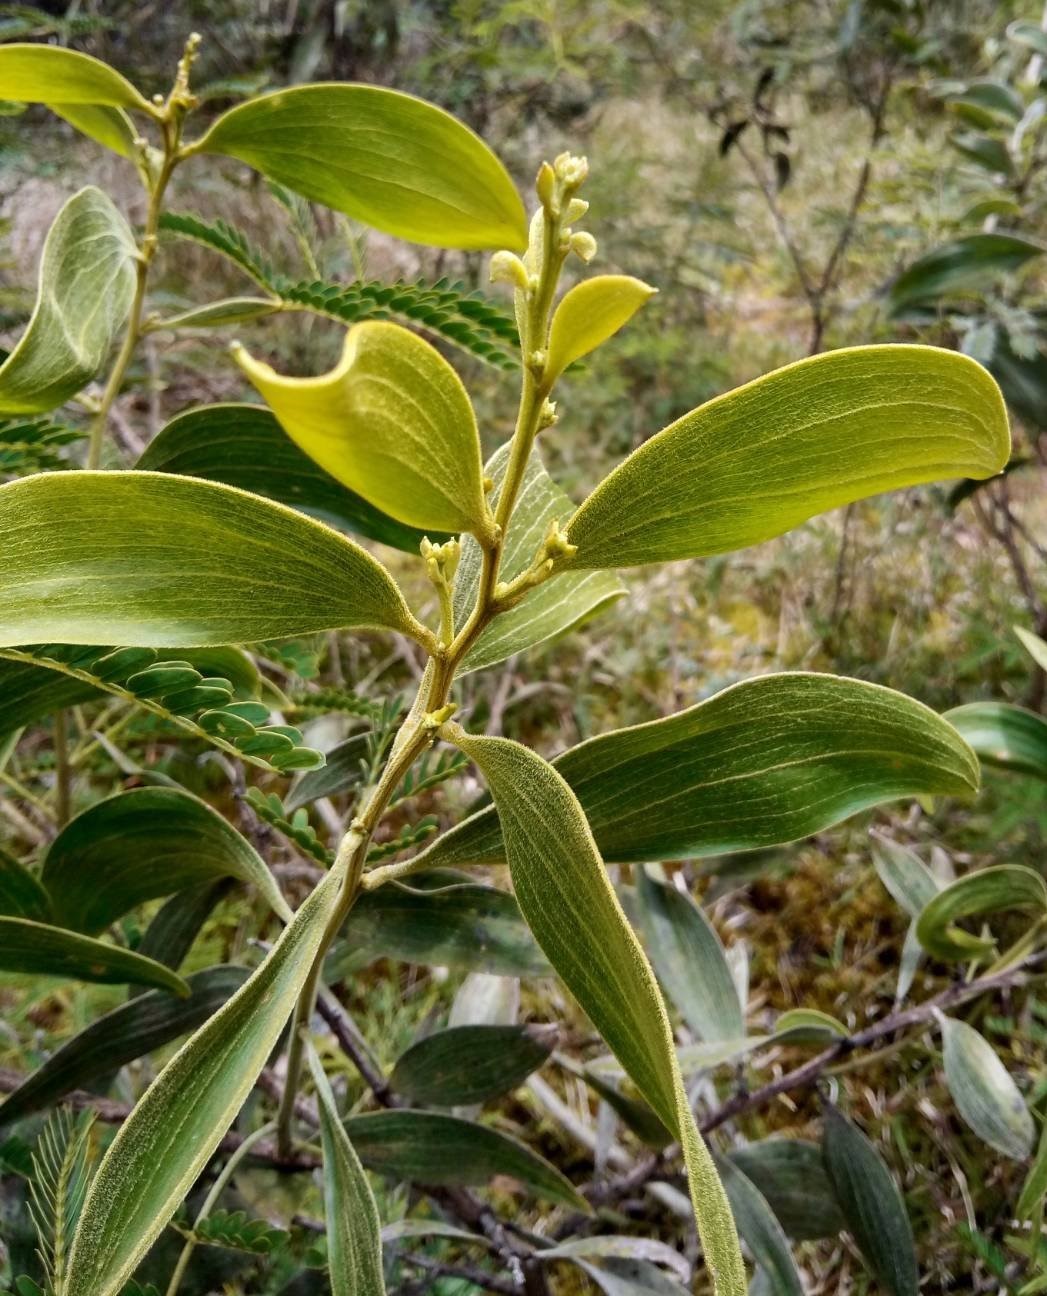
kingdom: Plantae
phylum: Tracheophyta
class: Magnoliopsida
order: Fabales
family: Fabaceae
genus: Acacia
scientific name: Acacia koa
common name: Gray koa
